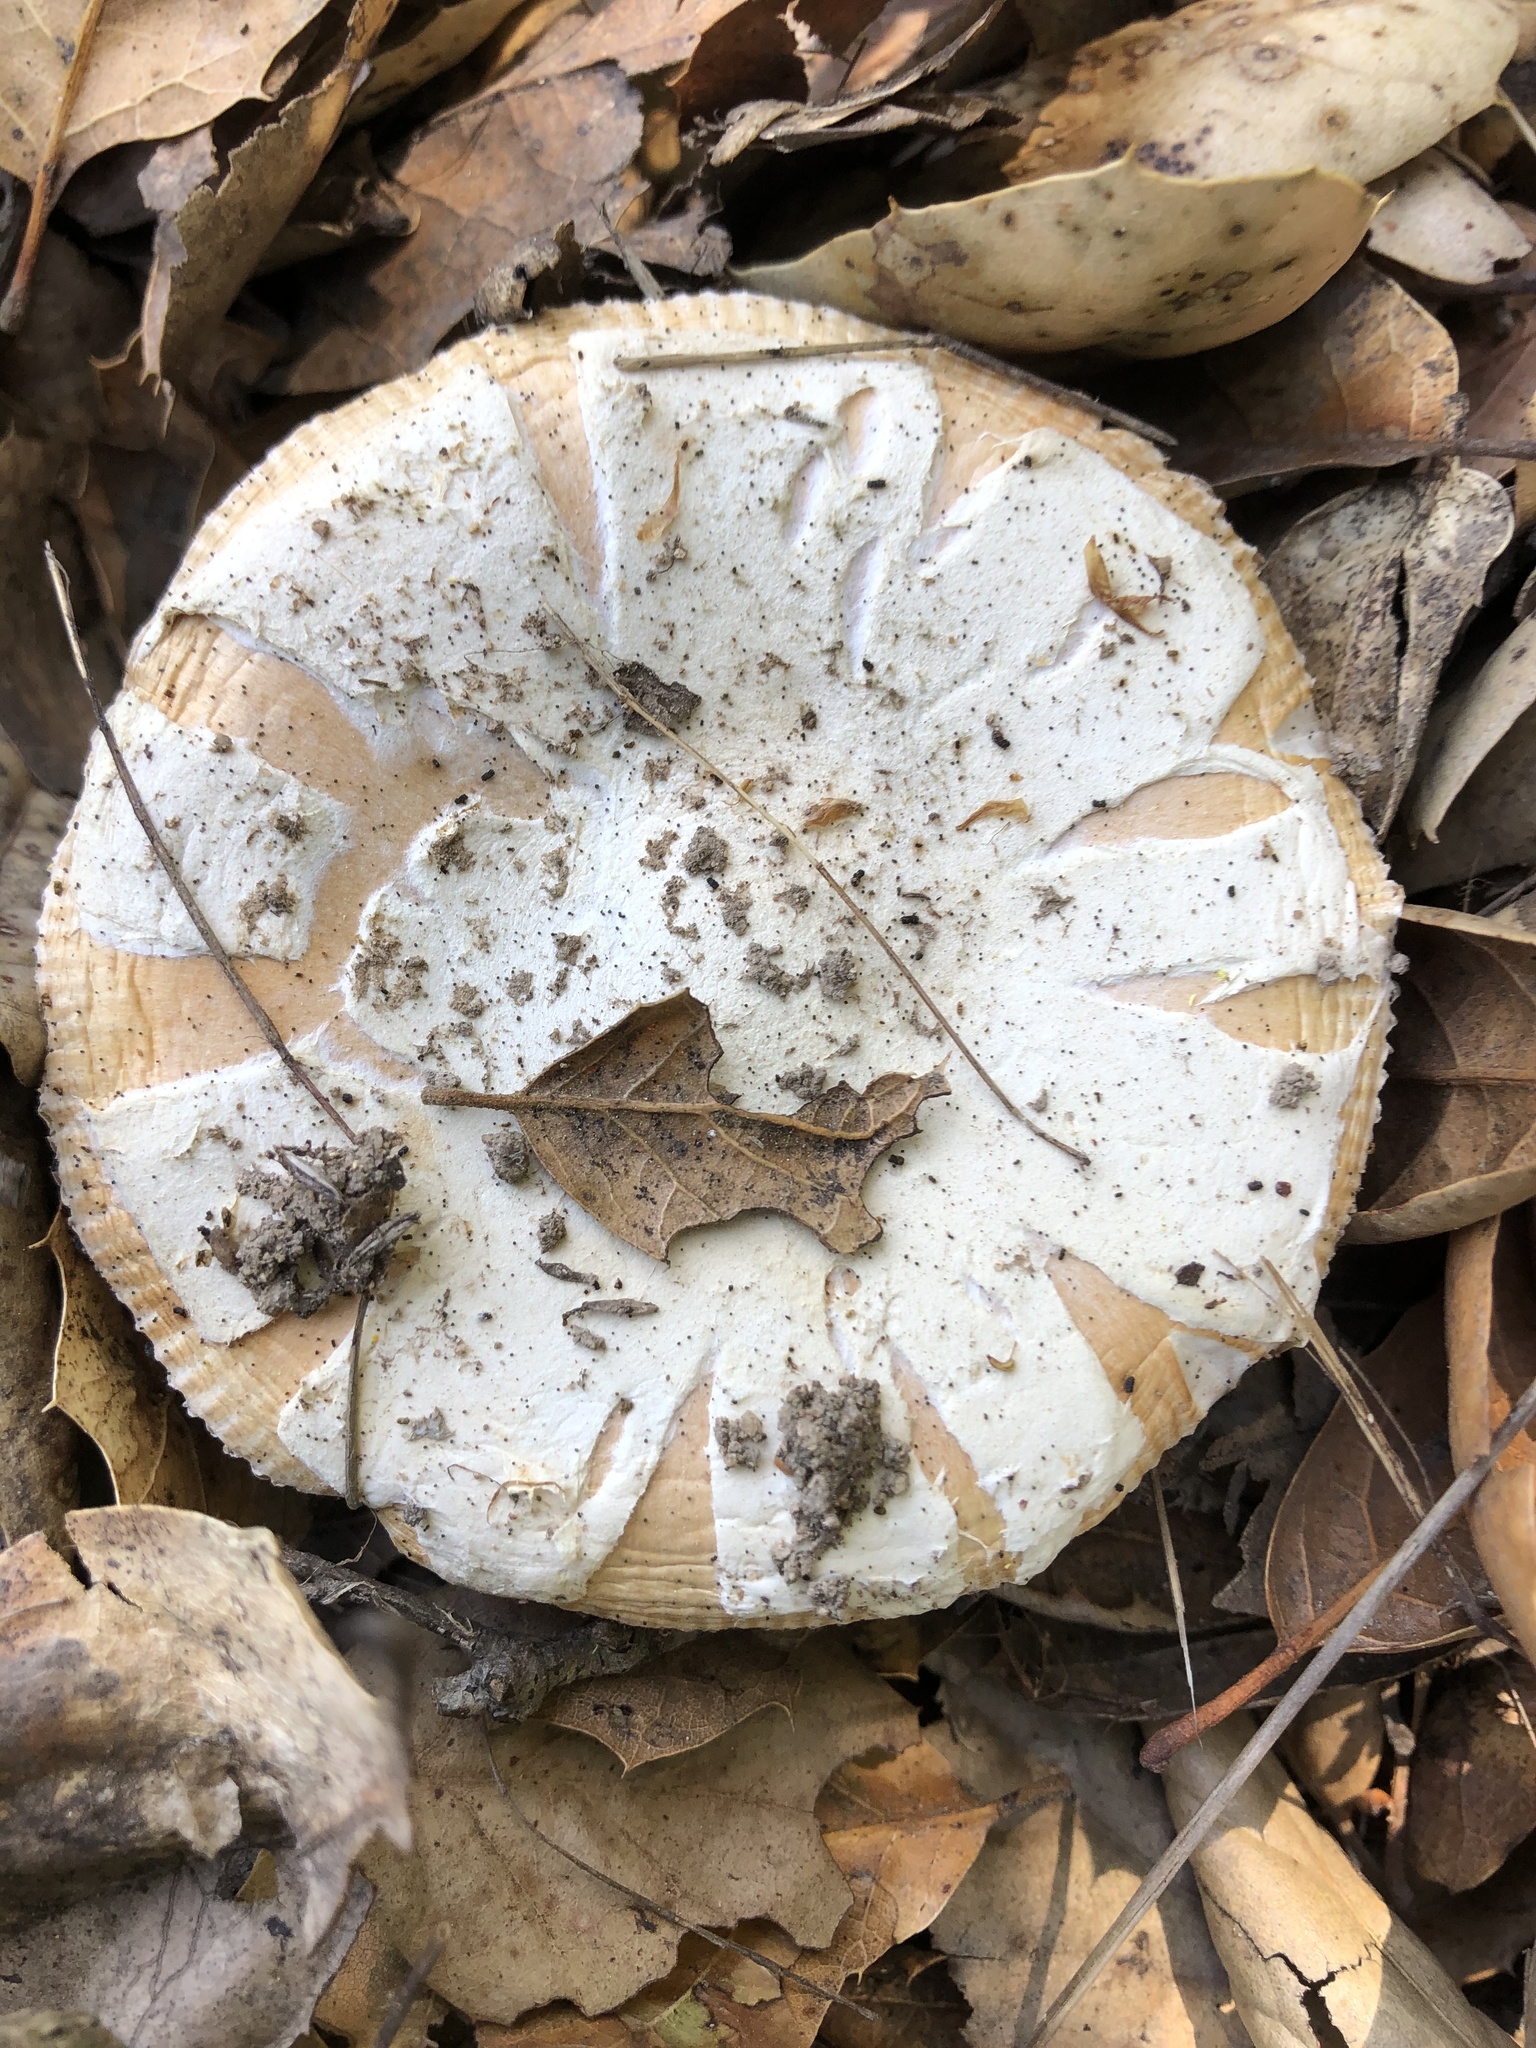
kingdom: Fungi
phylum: Basidiomycota
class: Agaricomycetes
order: Agaricales
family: Amanitaceae
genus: Amanita
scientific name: Amanita velosa
